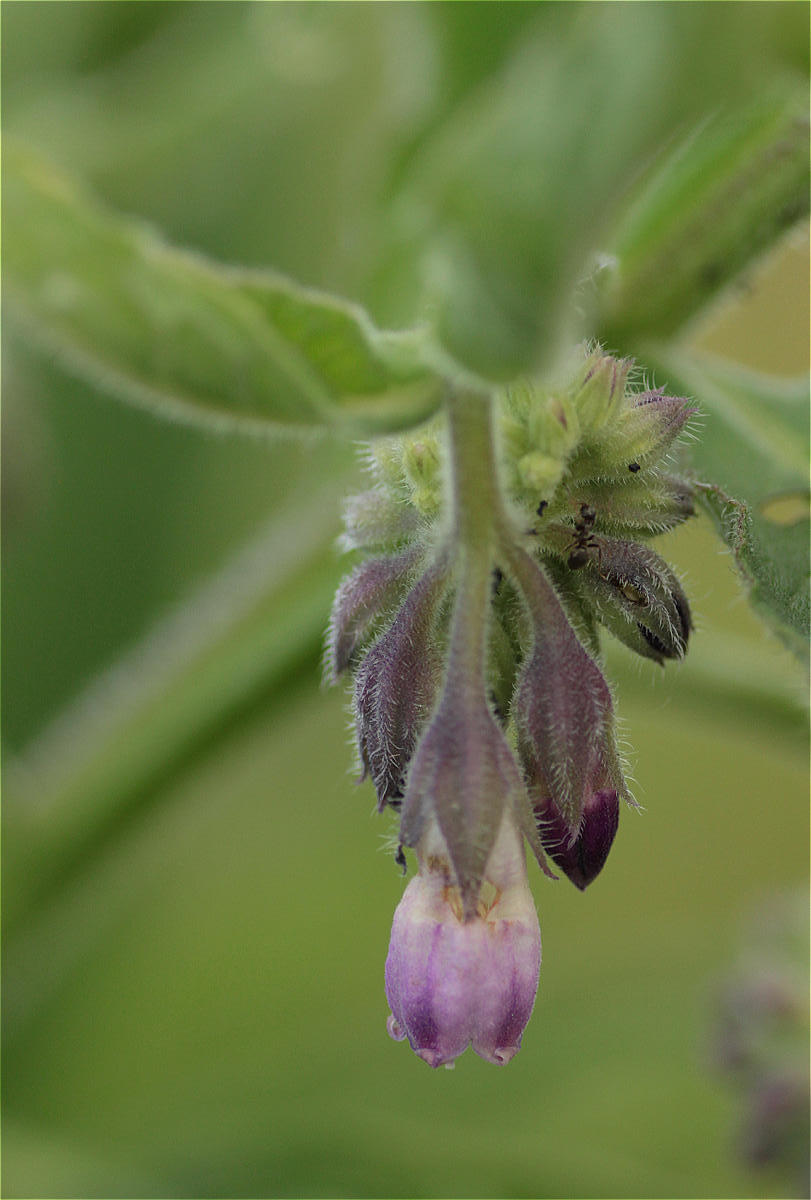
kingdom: Plantae
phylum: Tracheophyta
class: Magnoliopsida
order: Boraginales
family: Boraginaceae
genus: Symphytum
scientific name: Symphytum officinale
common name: Common comfrey
